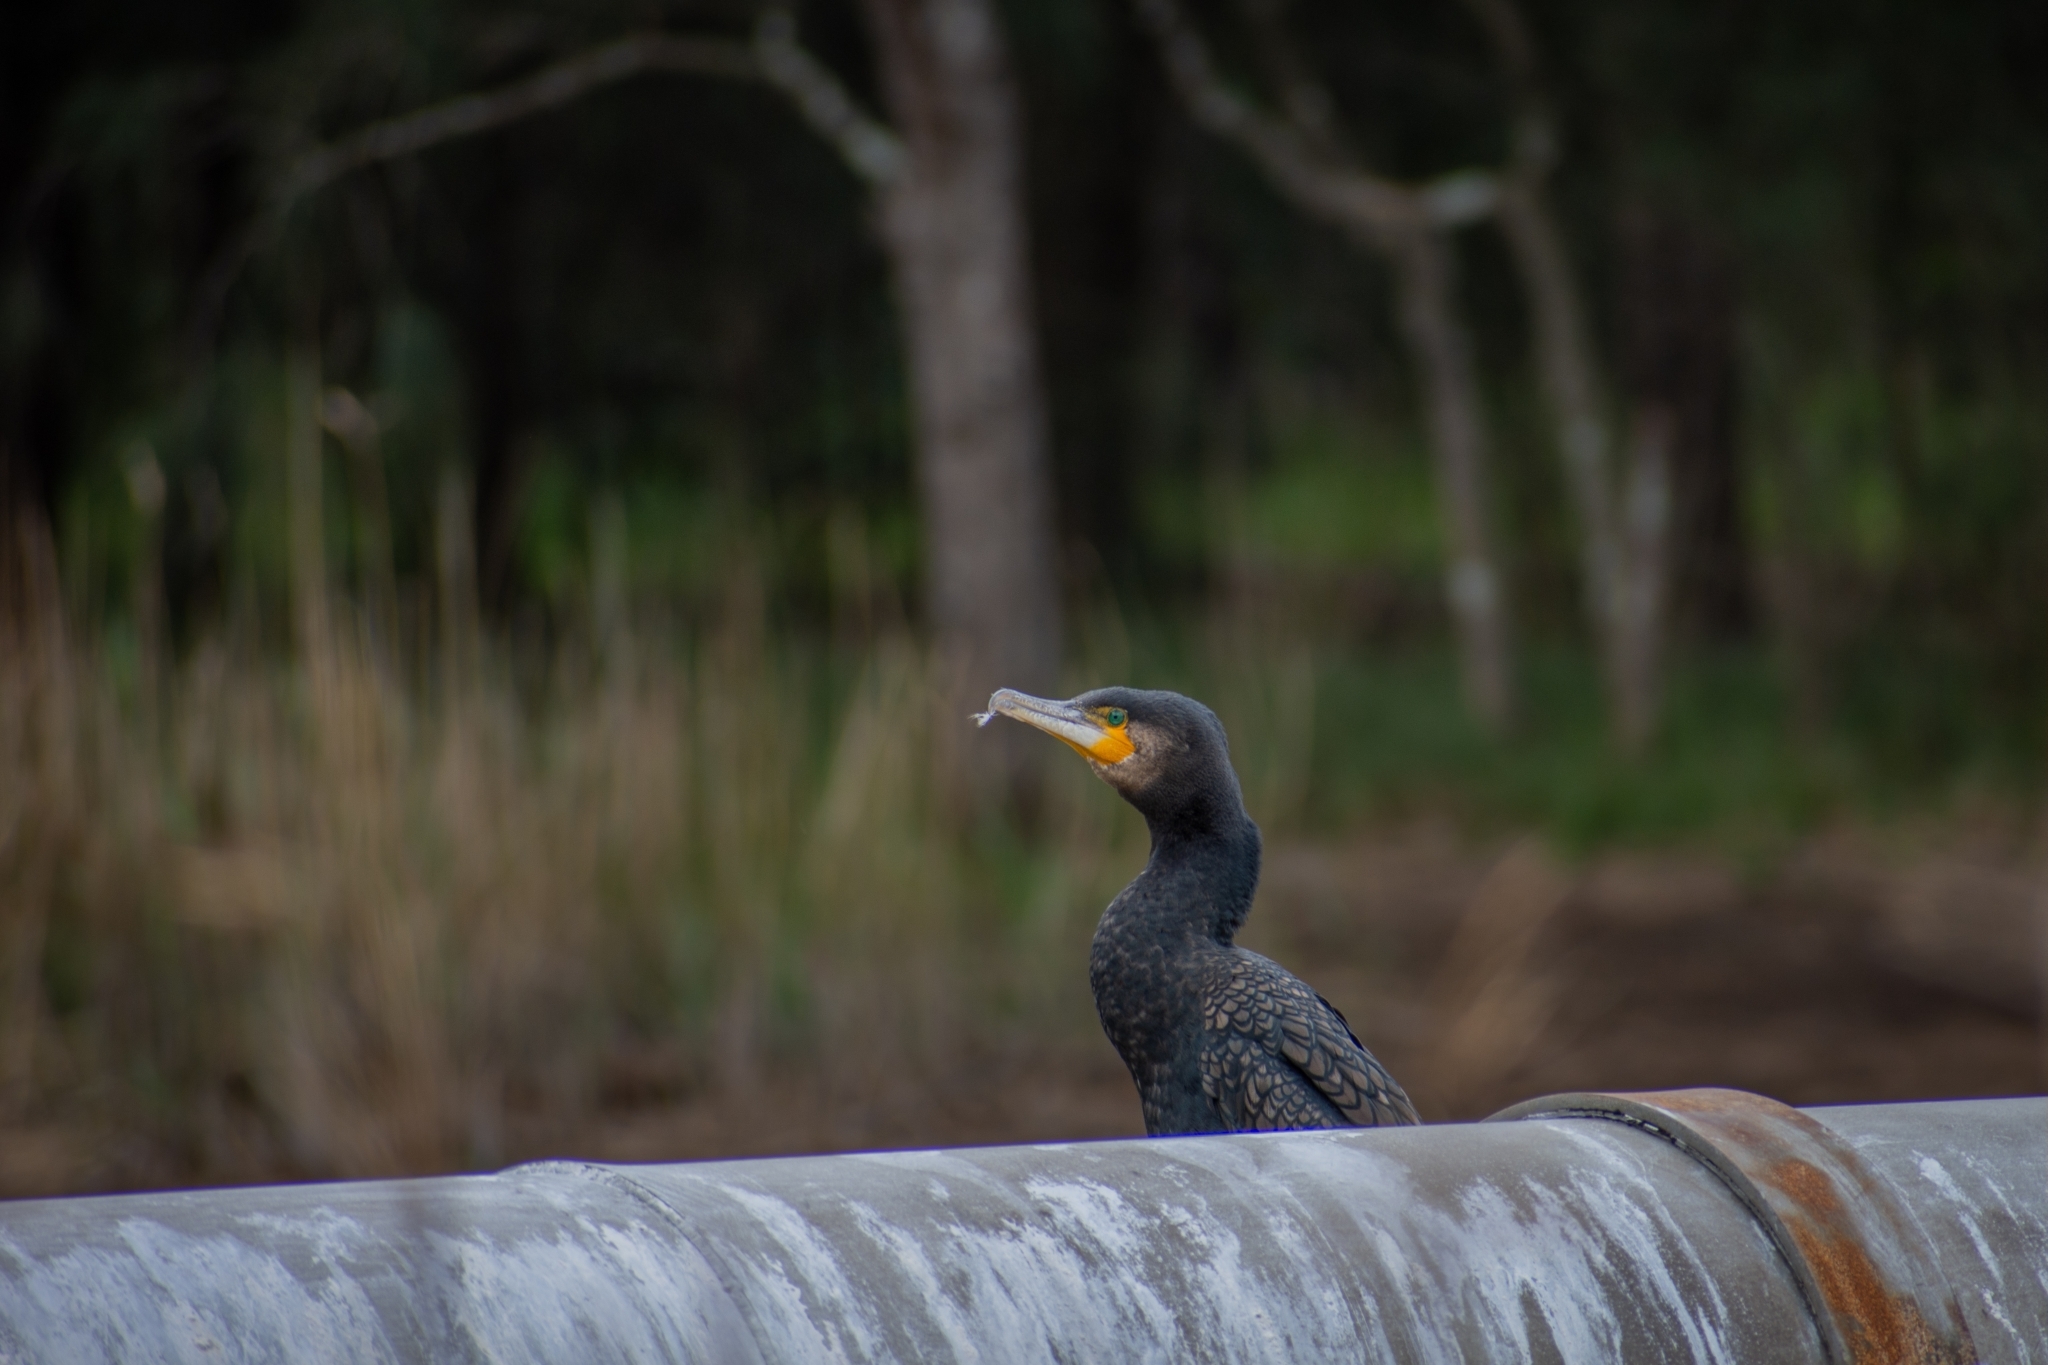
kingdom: Animalia
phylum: Chordata
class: Aves
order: Suliformes
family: Phalacrocoracidae
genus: Phalacrocorax
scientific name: Phalacrocorax carbo
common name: Great cormorant
